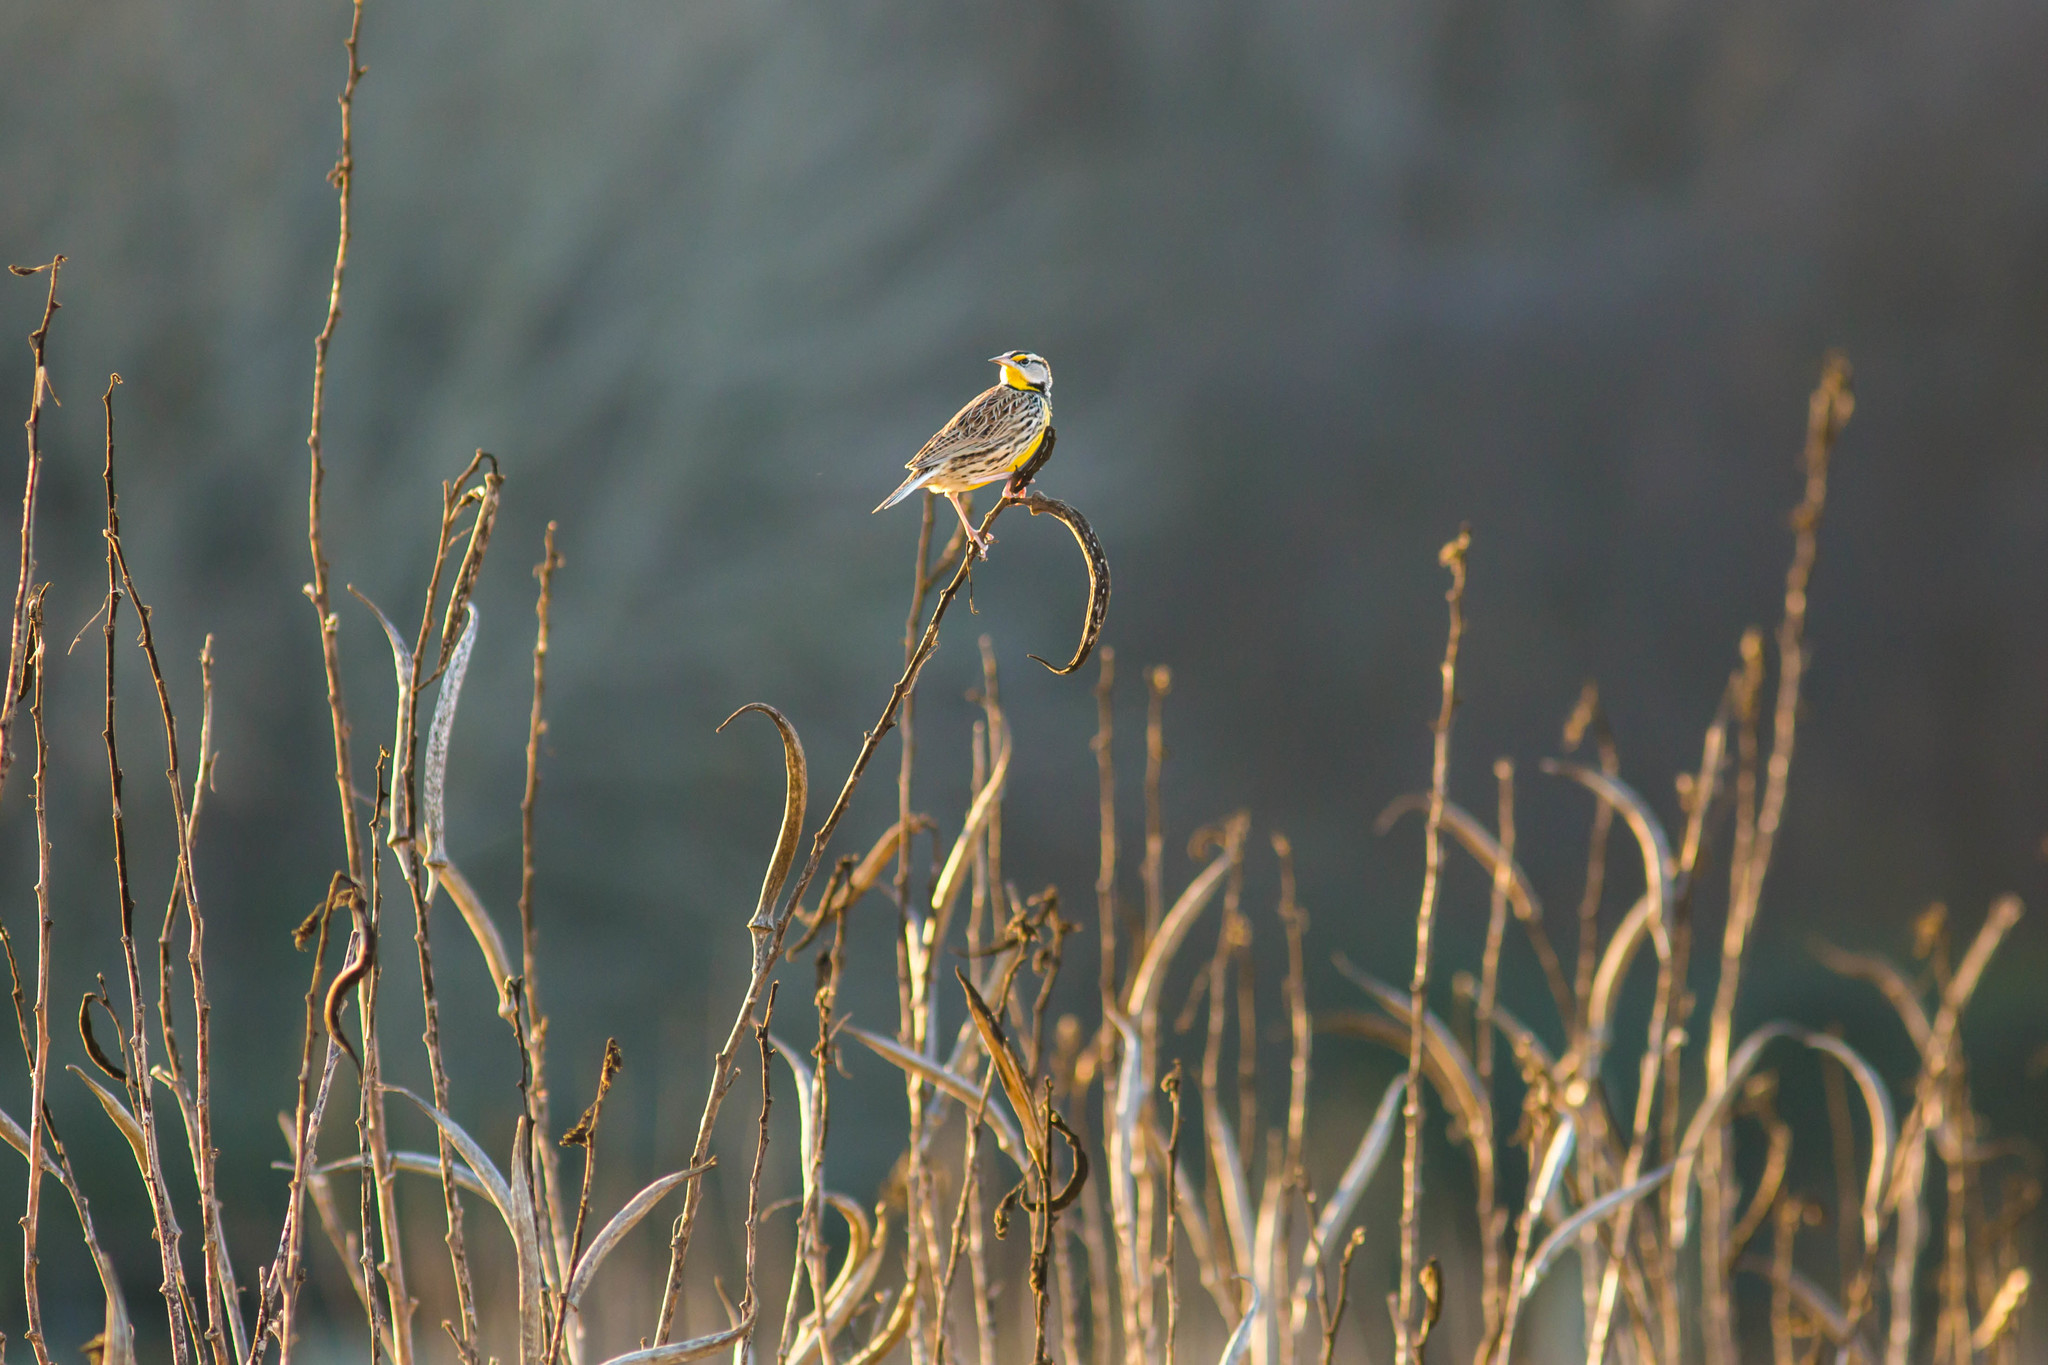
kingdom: Animalia
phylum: Chordata
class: Aves
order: Passeriformes
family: Icteridae
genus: Sturnella
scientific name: Sturnella magna
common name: Eastern meadowlark
